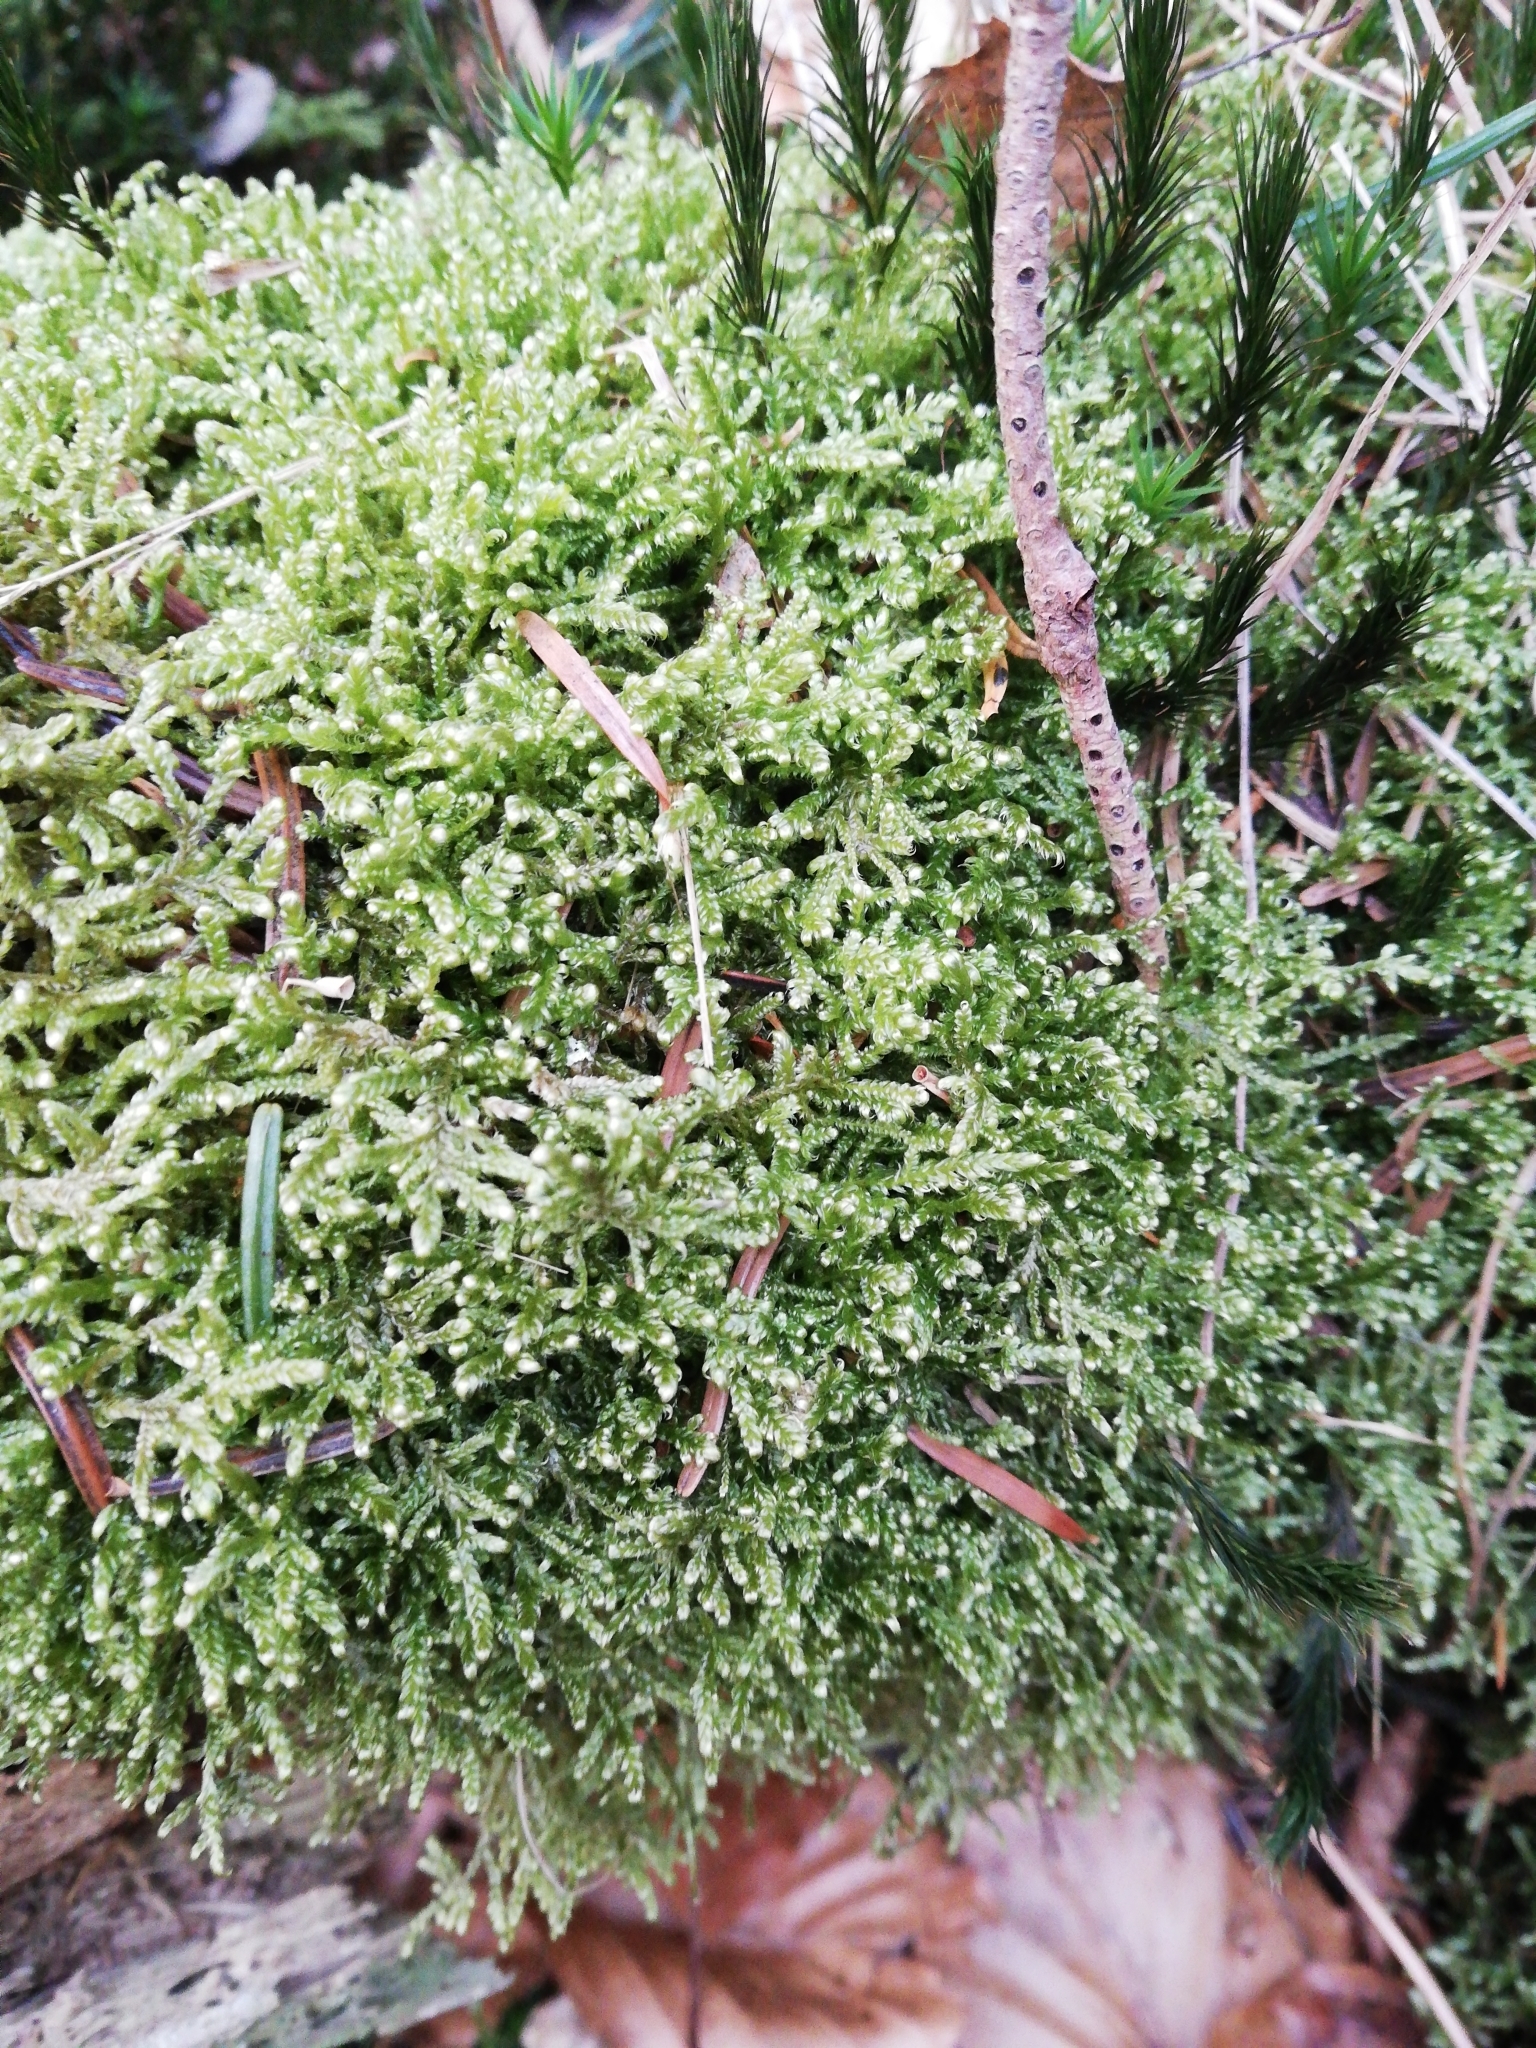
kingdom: Plantae
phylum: Bryophyta
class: Bryopsida
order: Hypnales
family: Hypnaceae
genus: Hypnum
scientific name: Hypnum jutlandicum
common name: Heath plait-moss
